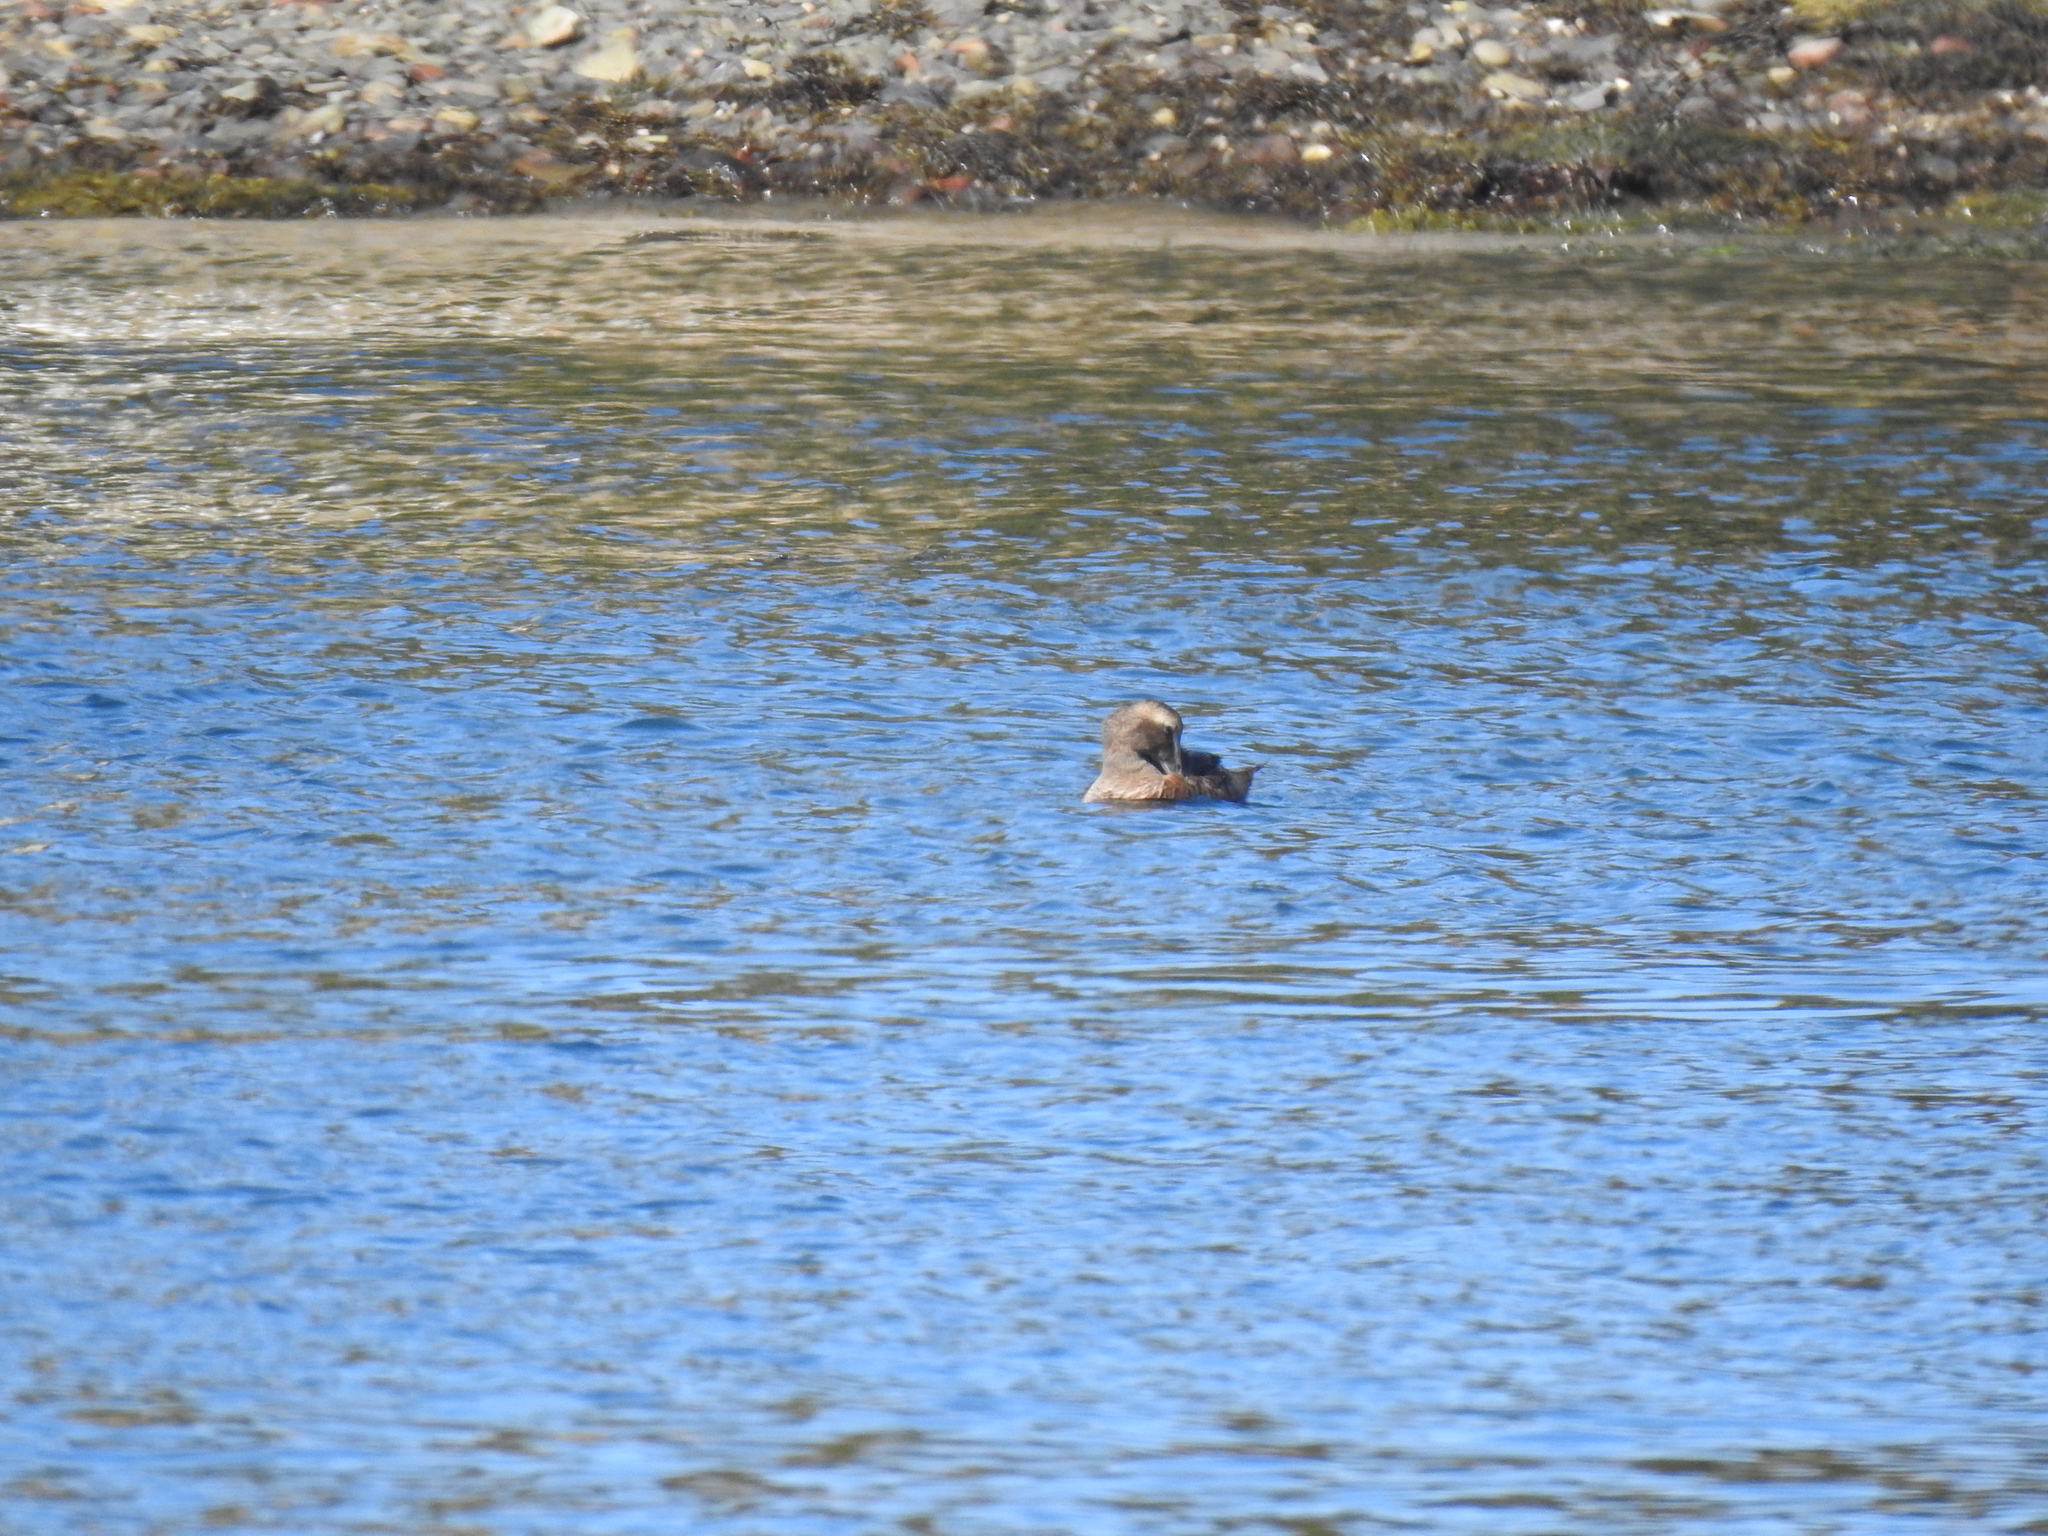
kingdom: Animalia
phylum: Chordata
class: Aves
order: Anseriformes
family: Anatidae
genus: Somateria
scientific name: Somateria mollissima
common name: Common eider
